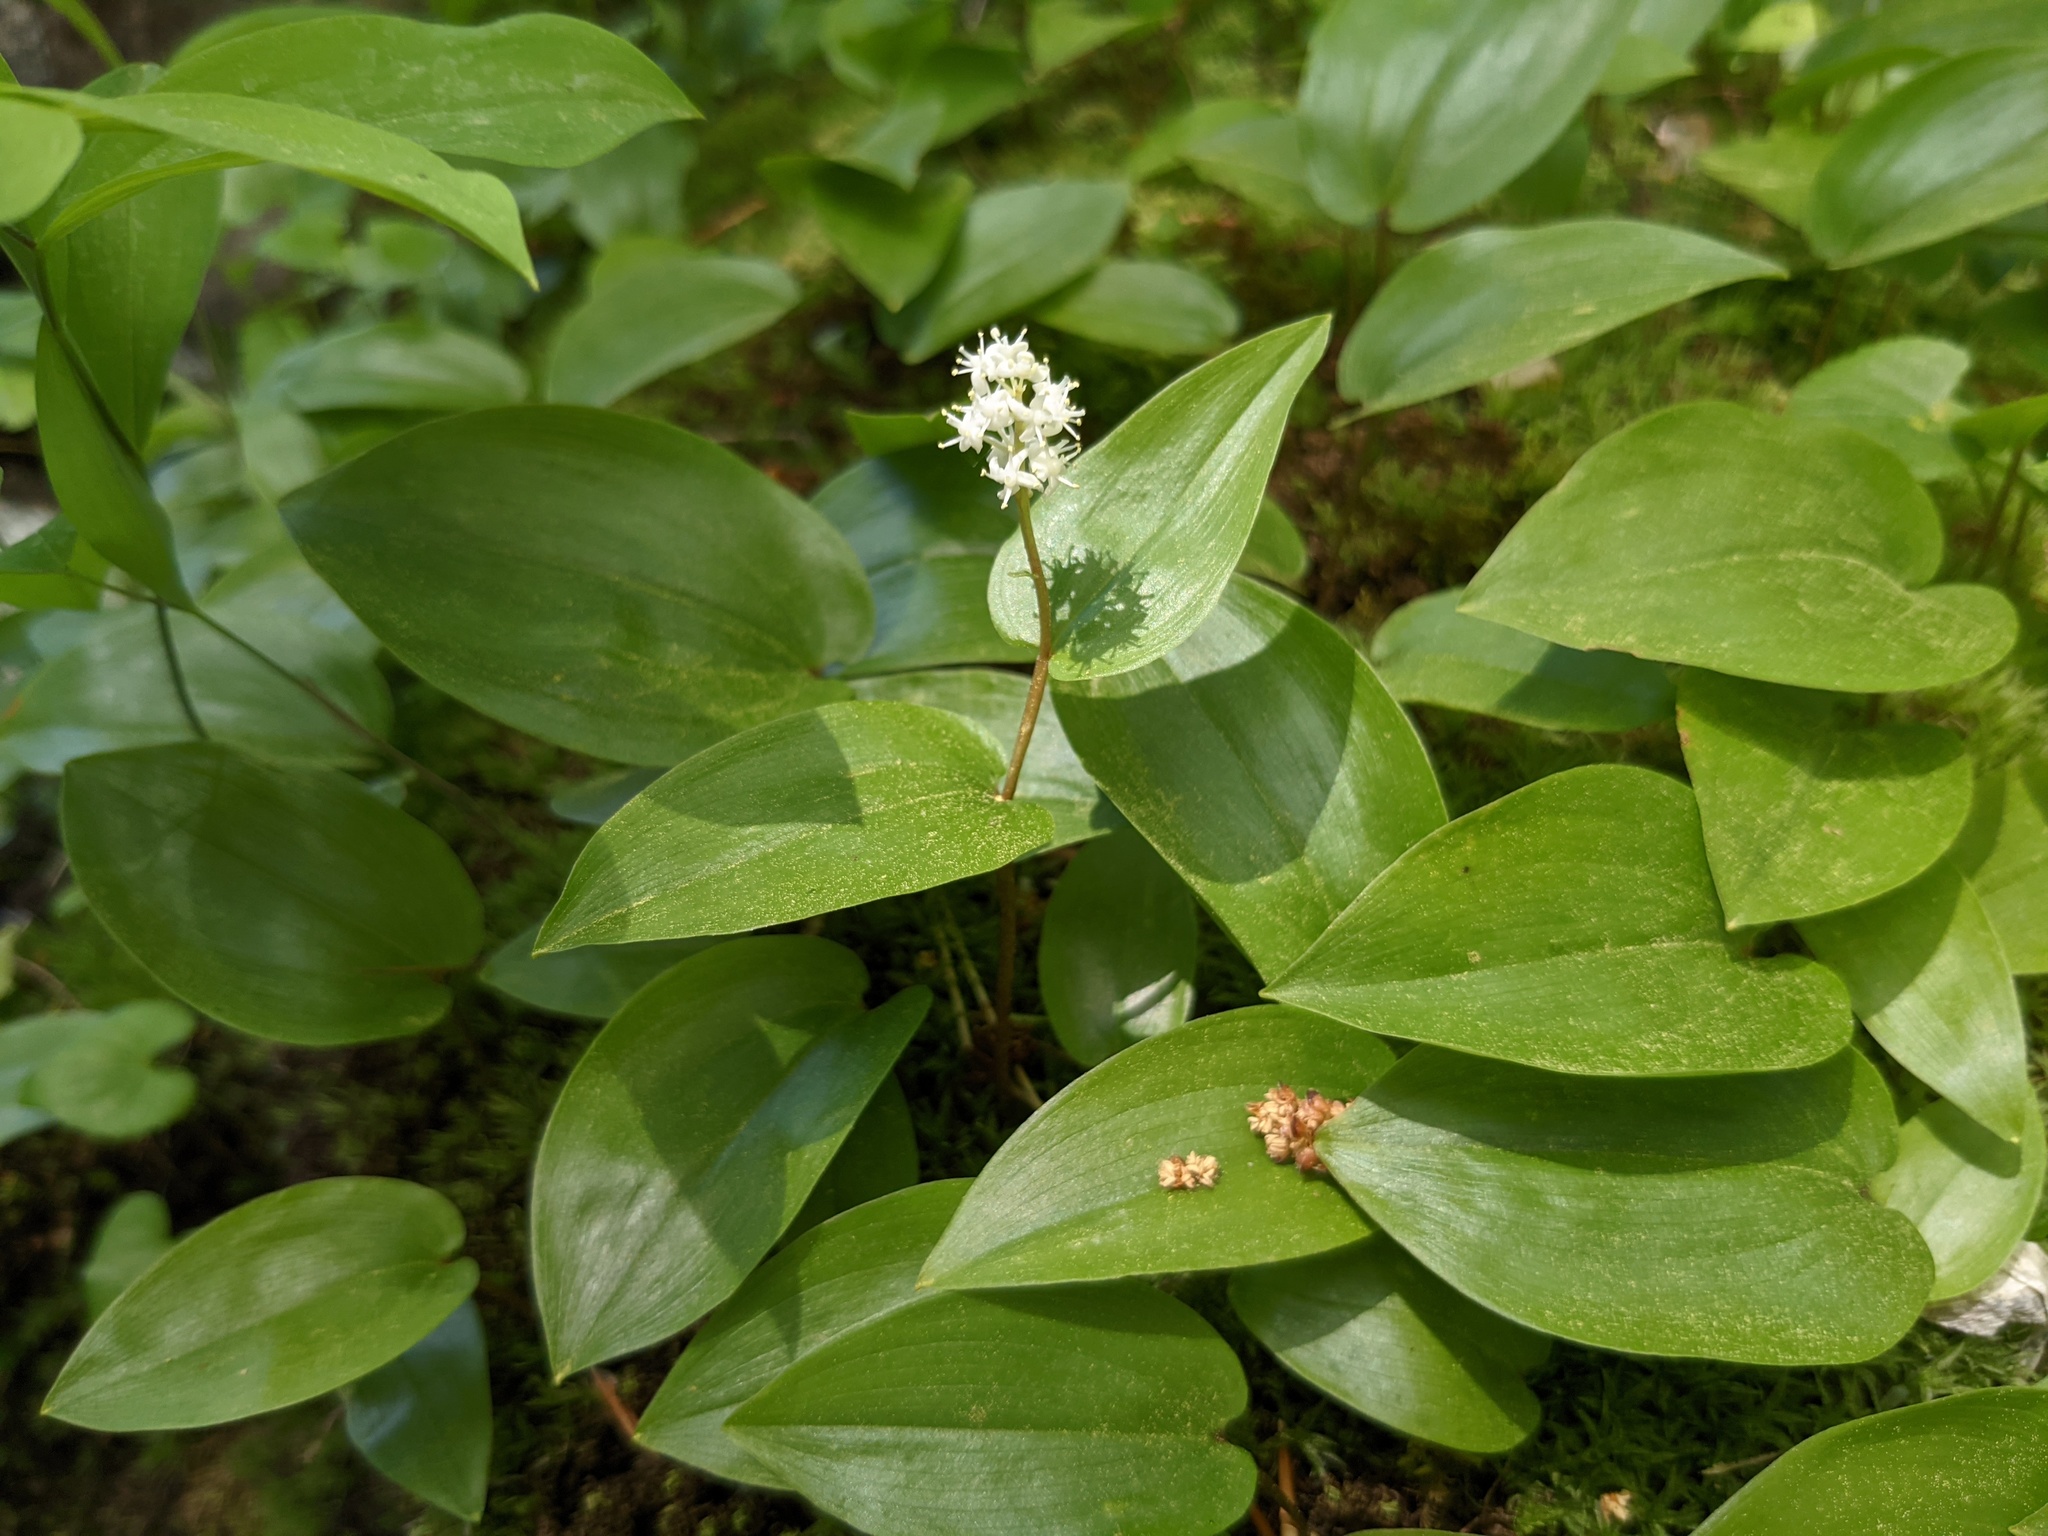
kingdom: Plantae
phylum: Tracheophyta
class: Liliopsida
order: Asparagales
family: Asparagaceae
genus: Maianthemum
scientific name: Maianthemum canadense
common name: False lily-of-the-valley
